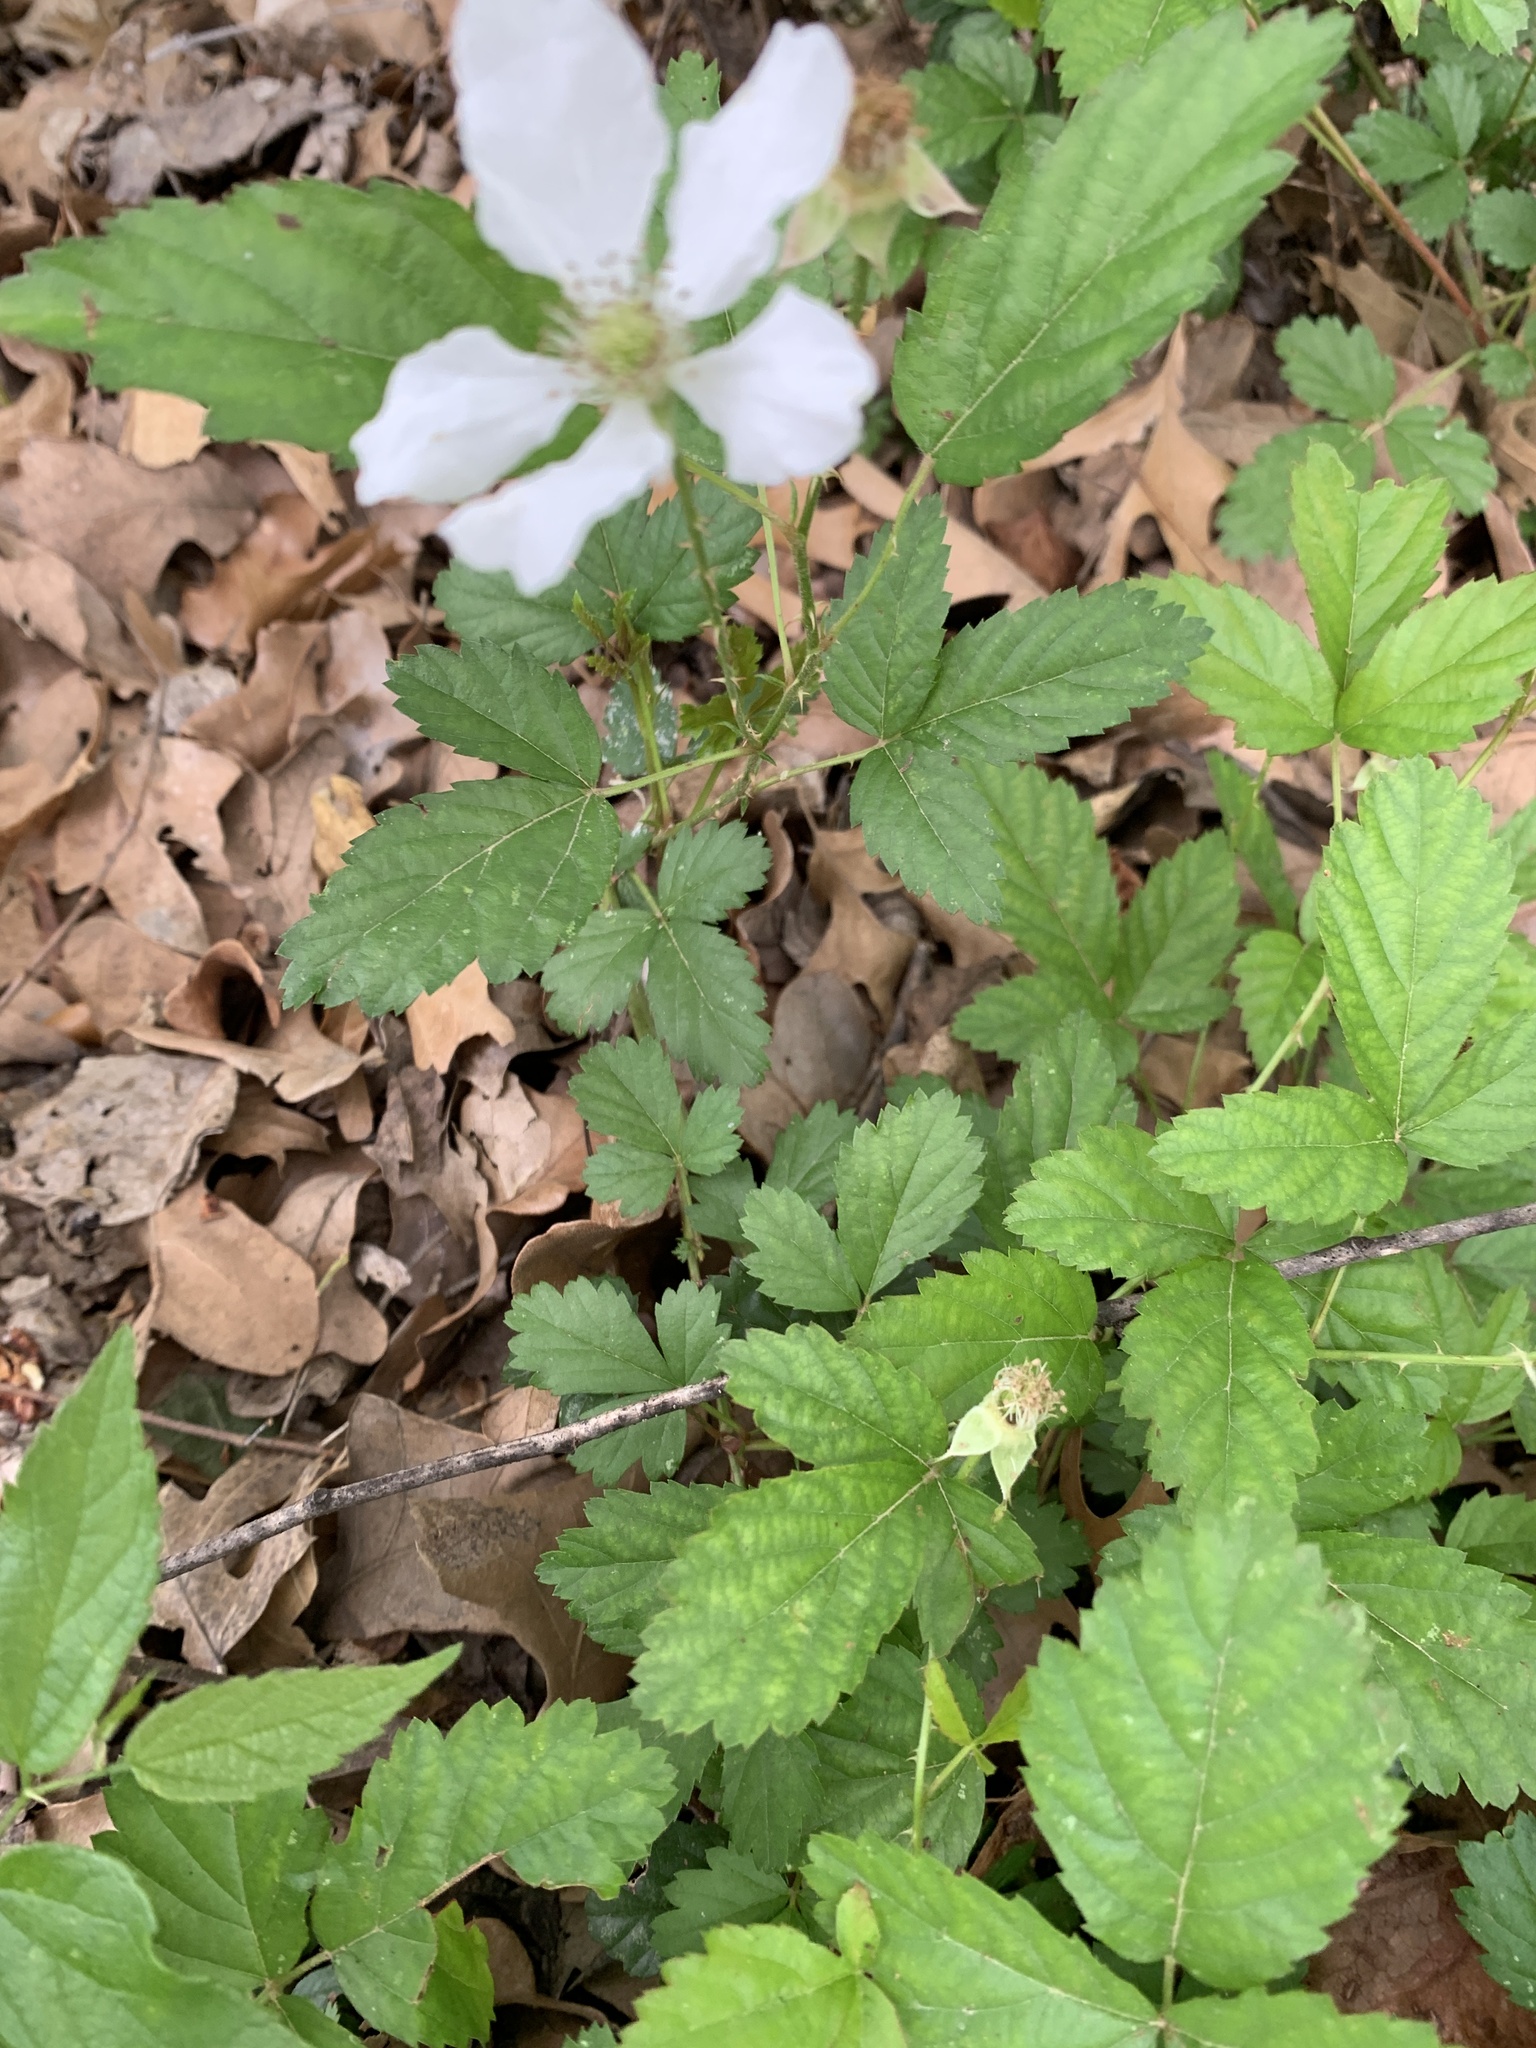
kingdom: Plantae
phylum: Tracheophyta
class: Magnoliopsida
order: Rosales
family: Rosaceae
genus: Rubus
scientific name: Rubus trivialis
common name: Southern dewberry
